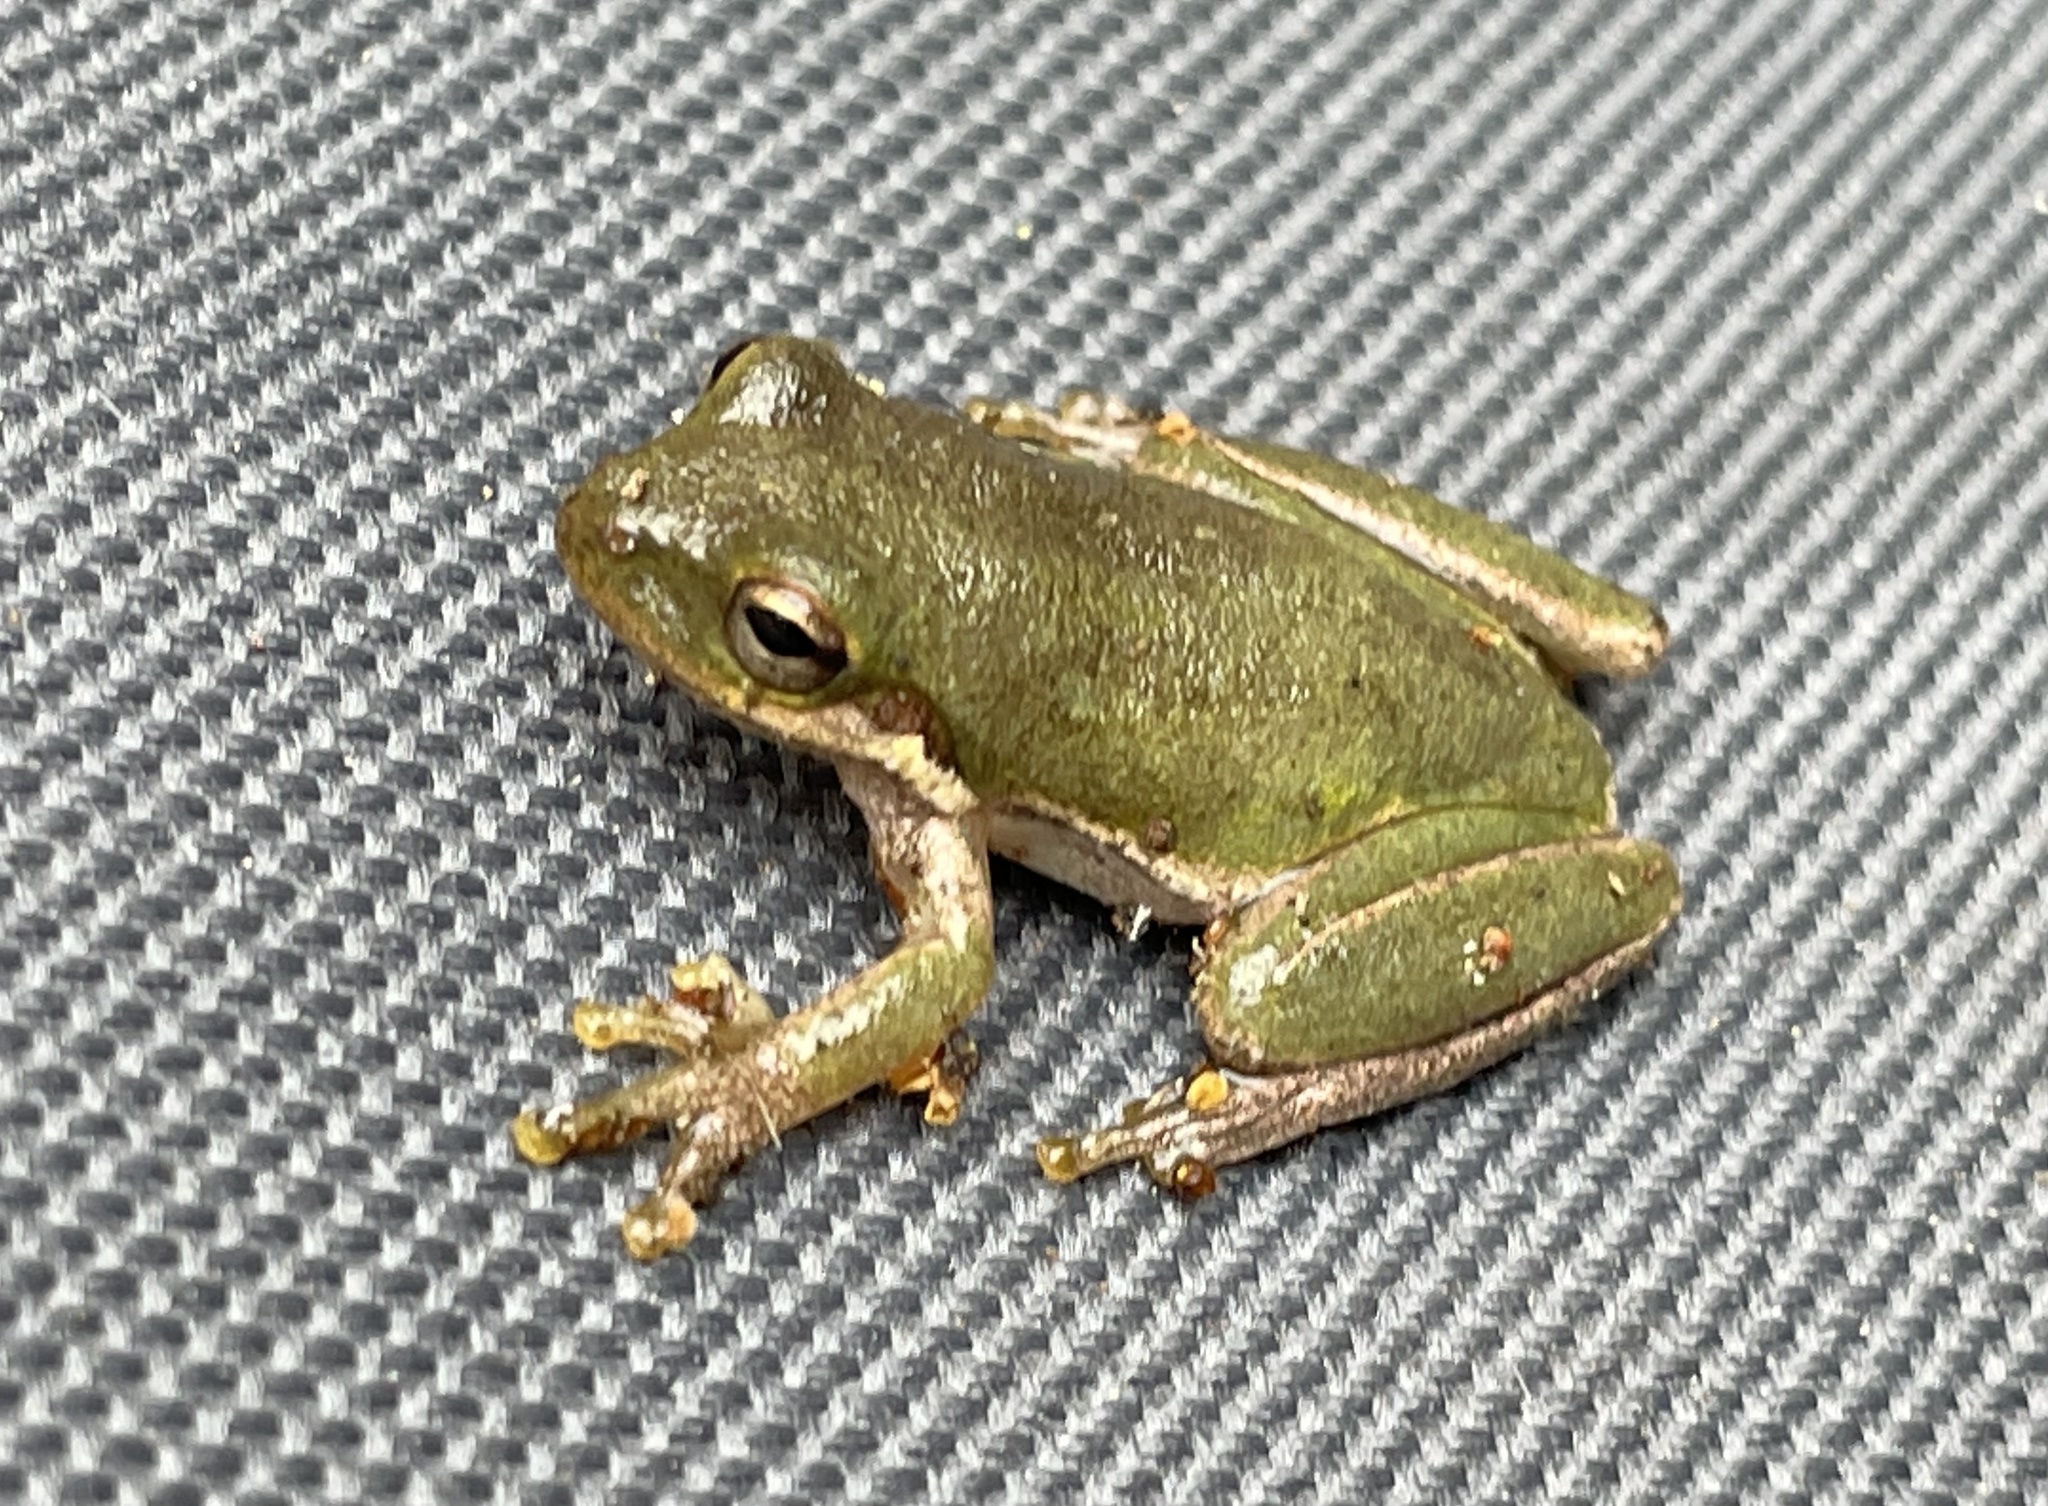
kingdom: Animalia
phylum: Chordata
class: Amphibia
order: Anura
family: Hylidae
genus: Dryophytes
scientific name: Dryophytes squirellus
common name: Squirrel treefrog
